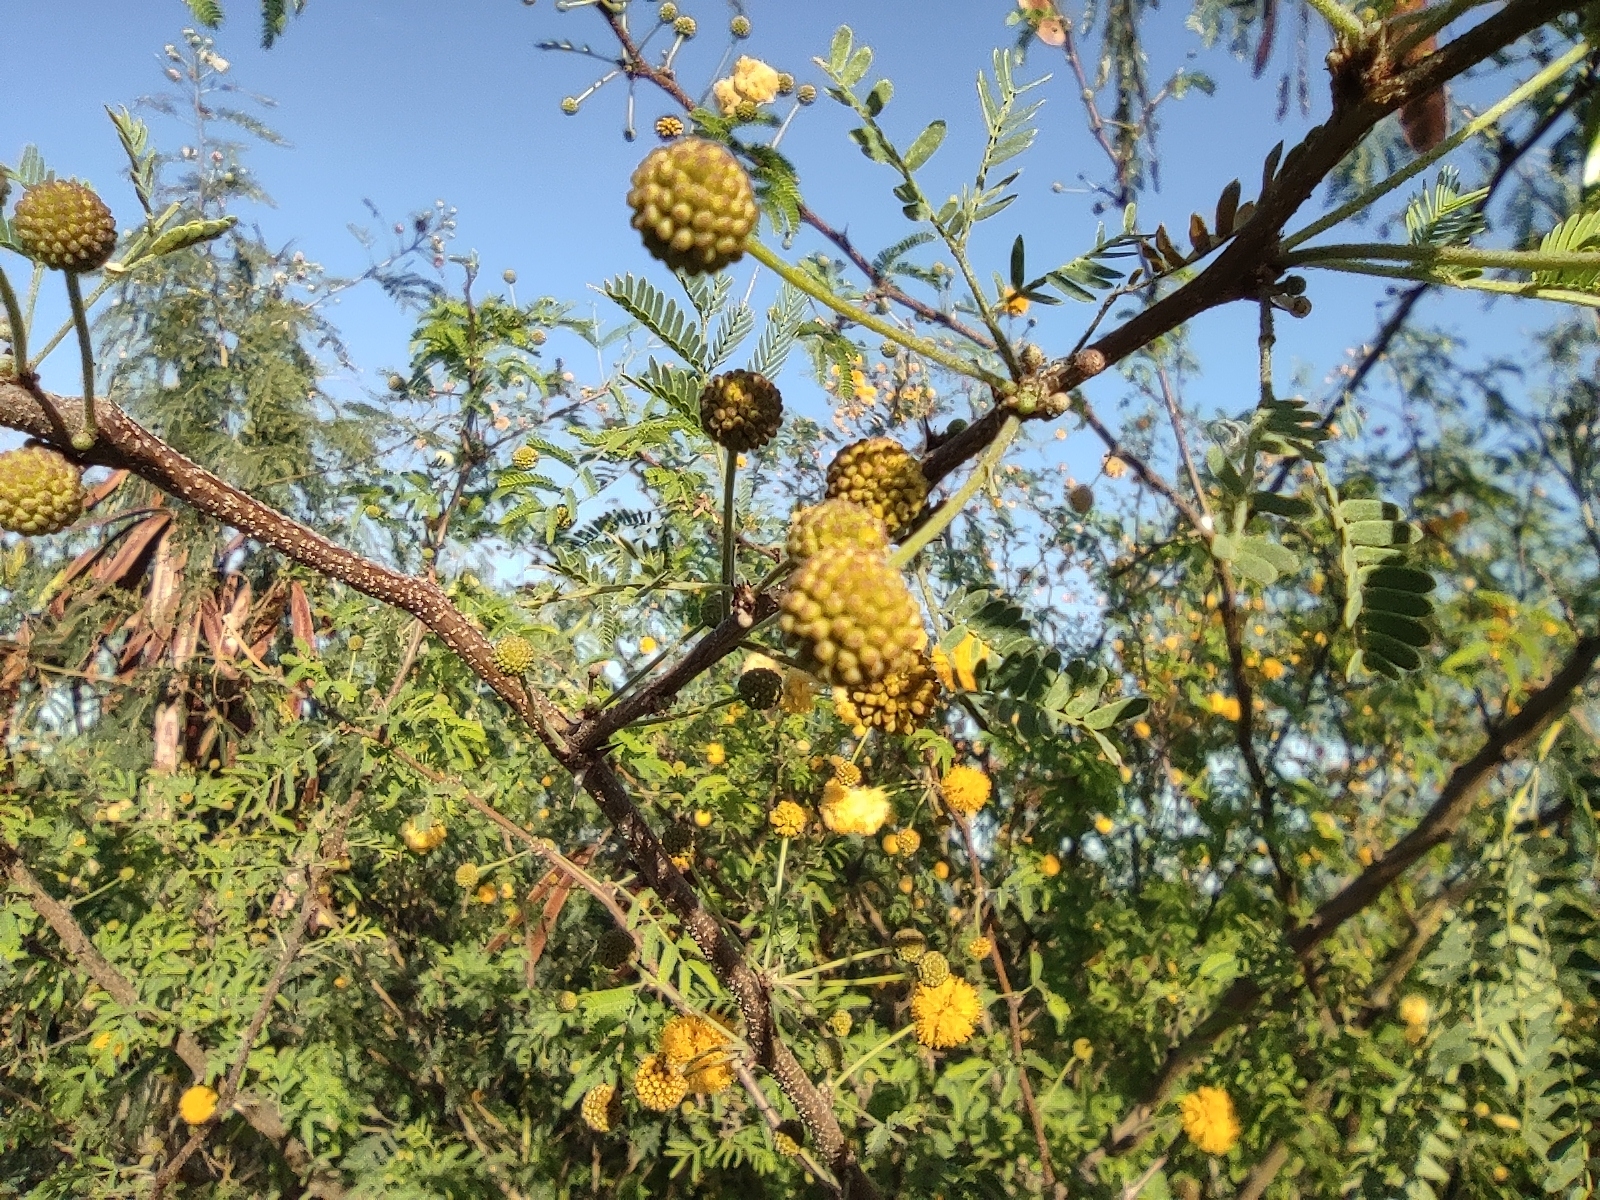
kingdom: Plantae
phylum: Tracheophyta
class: Magnoliopsida
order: Fabales
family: Fabaceae
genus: Vachellia
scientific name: Vachellia farnesiana
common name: Sweet acacia
